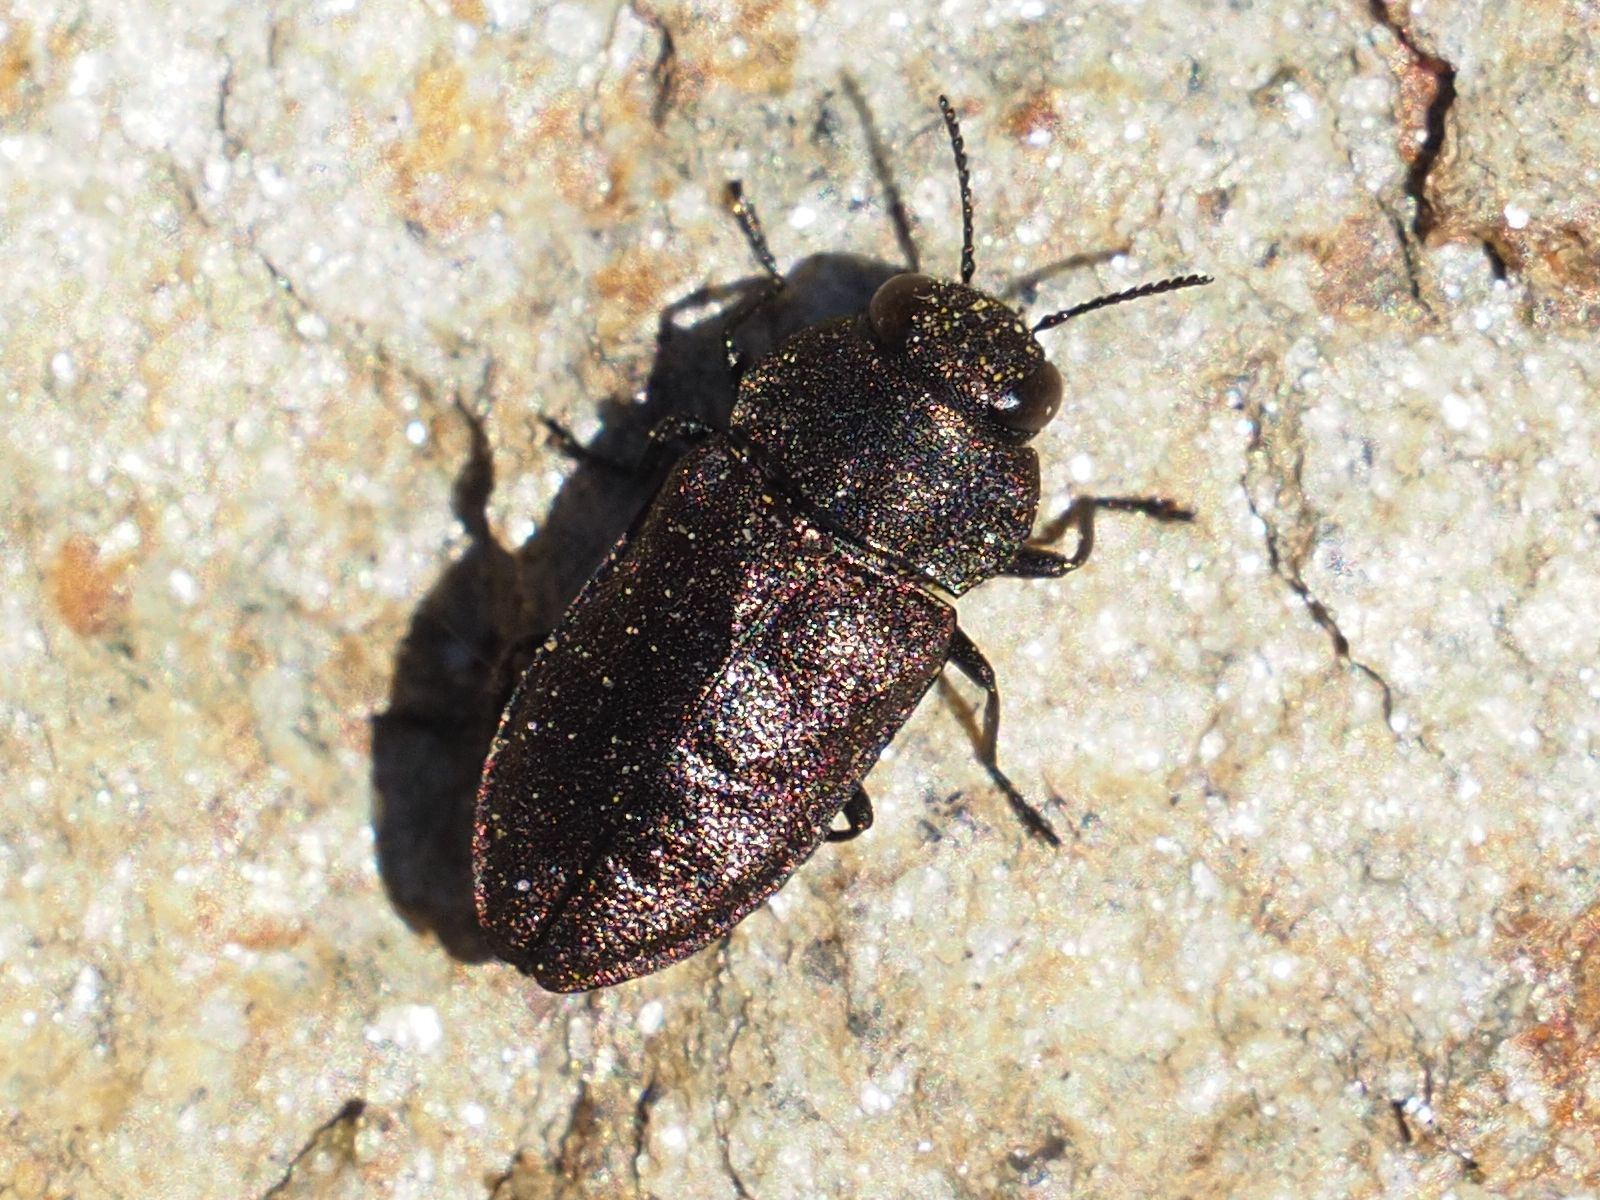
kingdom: Animalia
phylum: Arthropoda
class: Insecta
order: Coleoptera
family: Buprestidae
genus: Anthaxia
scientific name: Anthaxia helvetica
